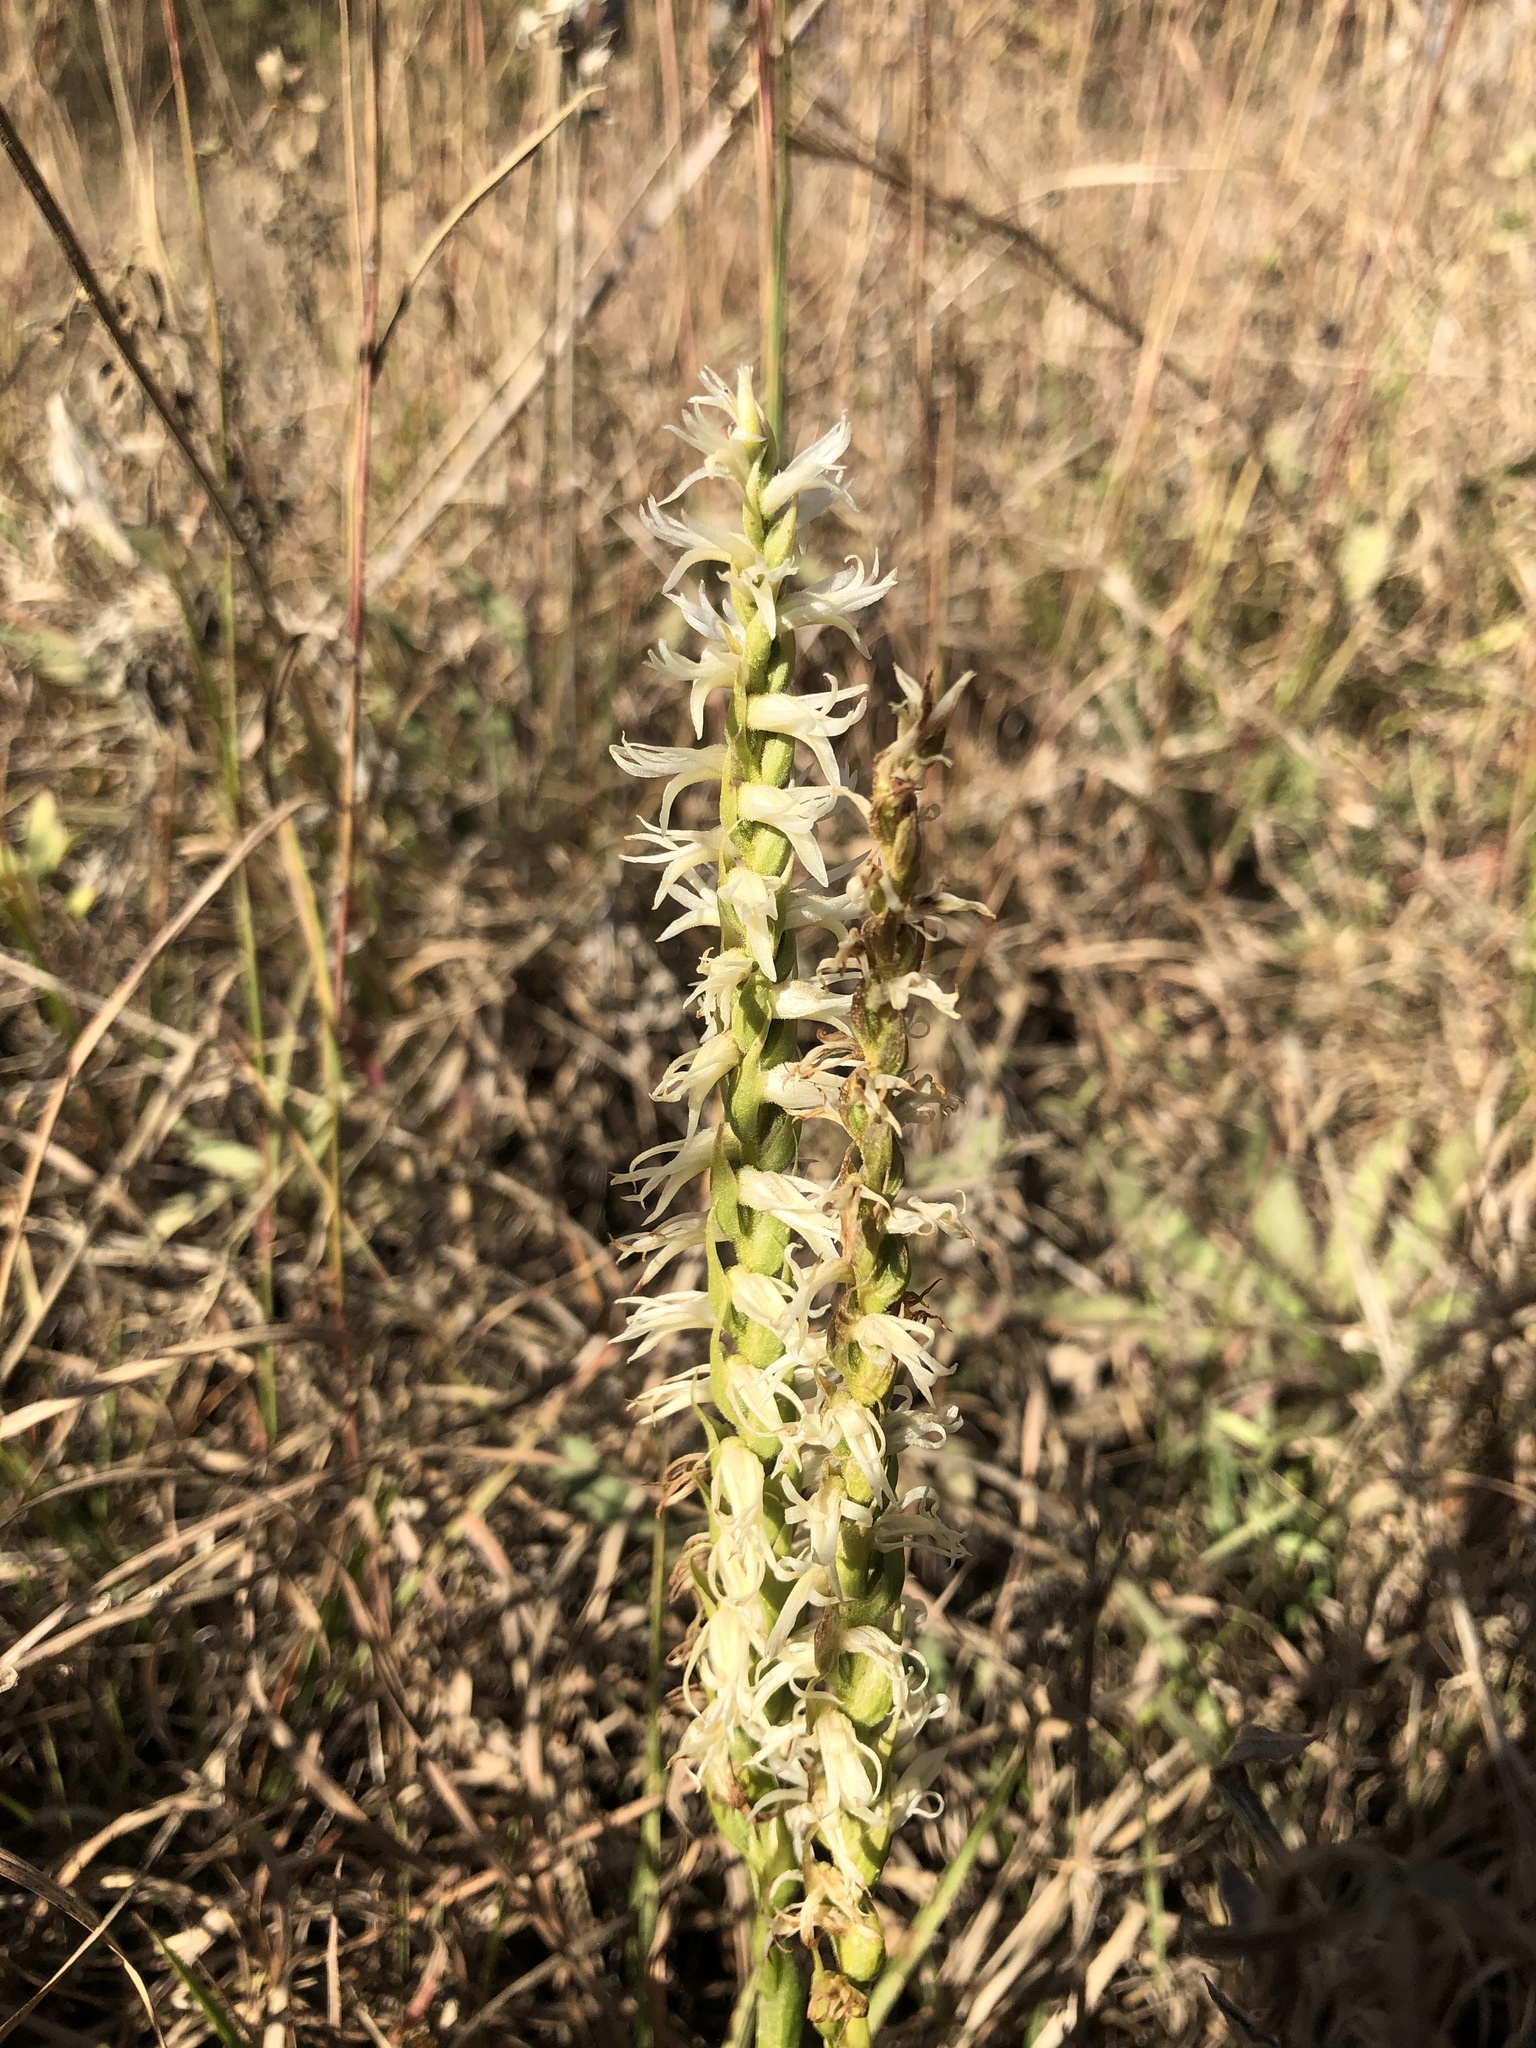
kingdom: Plantae
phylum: Tracheophyta
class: Liliopsida
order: Asparagales
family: Orchidaceae
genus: Spiranthes
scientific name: Spiranthes magnicamporum
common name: Great plains ladies'-tresses
